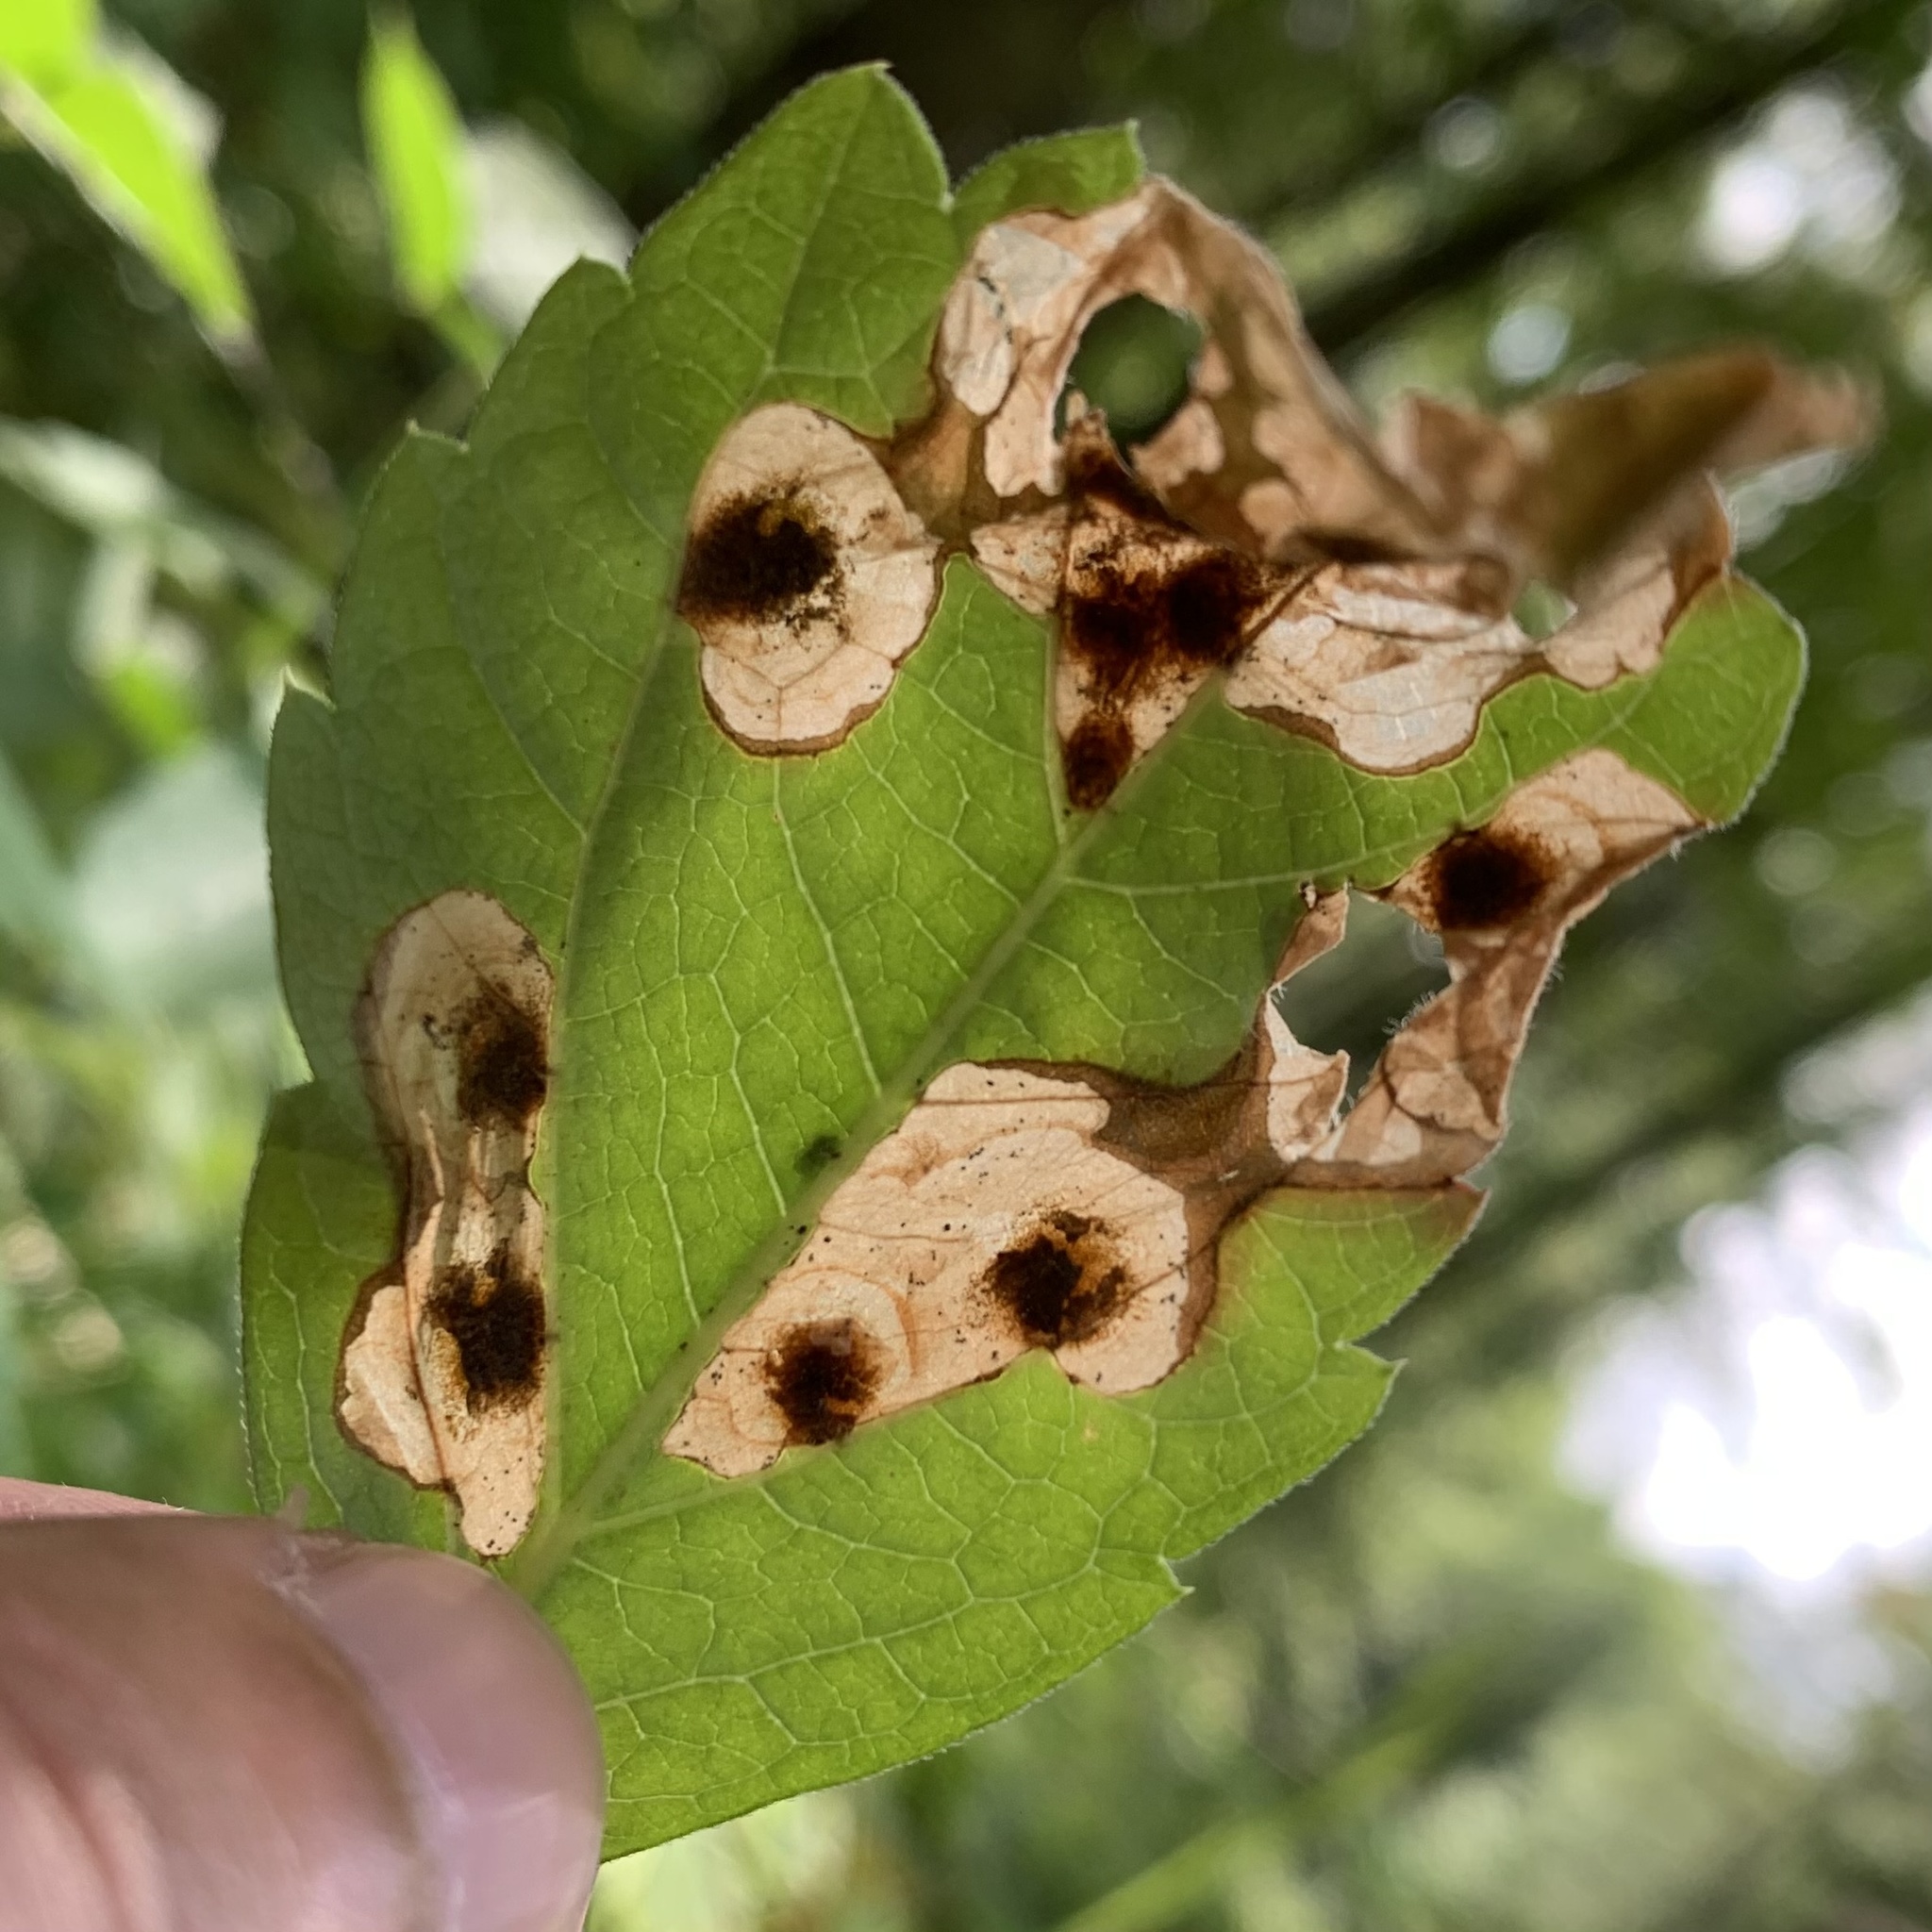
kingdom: Animalia
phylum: Arthropoda
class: Insecta
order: Lepidoptera
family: Heliozelidae
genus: Aspilanta
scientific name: Aspilanta viticordifoliella
